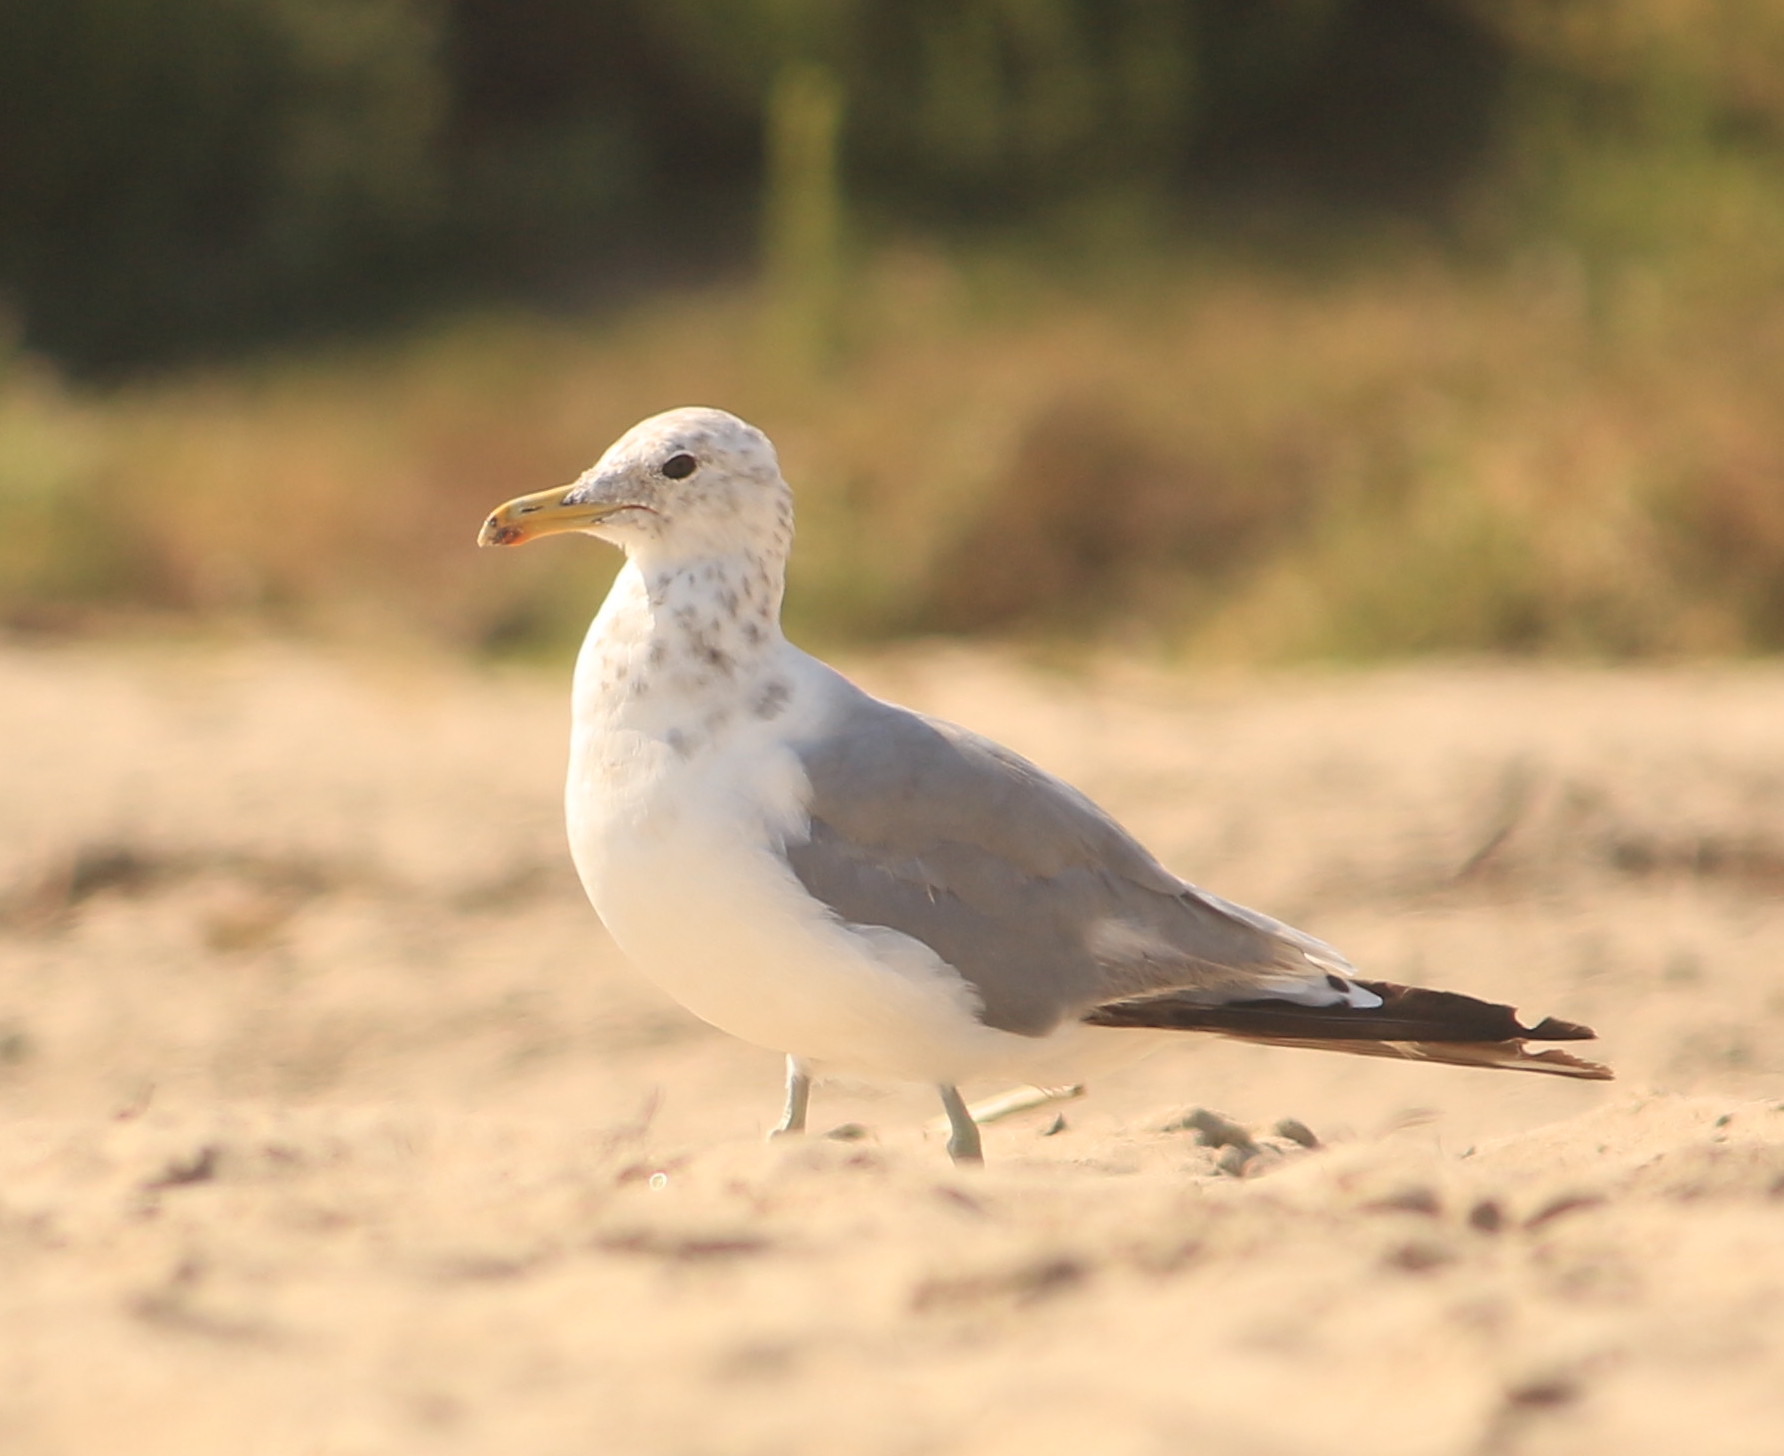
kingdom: Animalia
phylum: Chordata
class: Aves
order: Charadriiformes
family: Laridae
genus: Larus
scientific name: Larus californicus
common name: California gull
